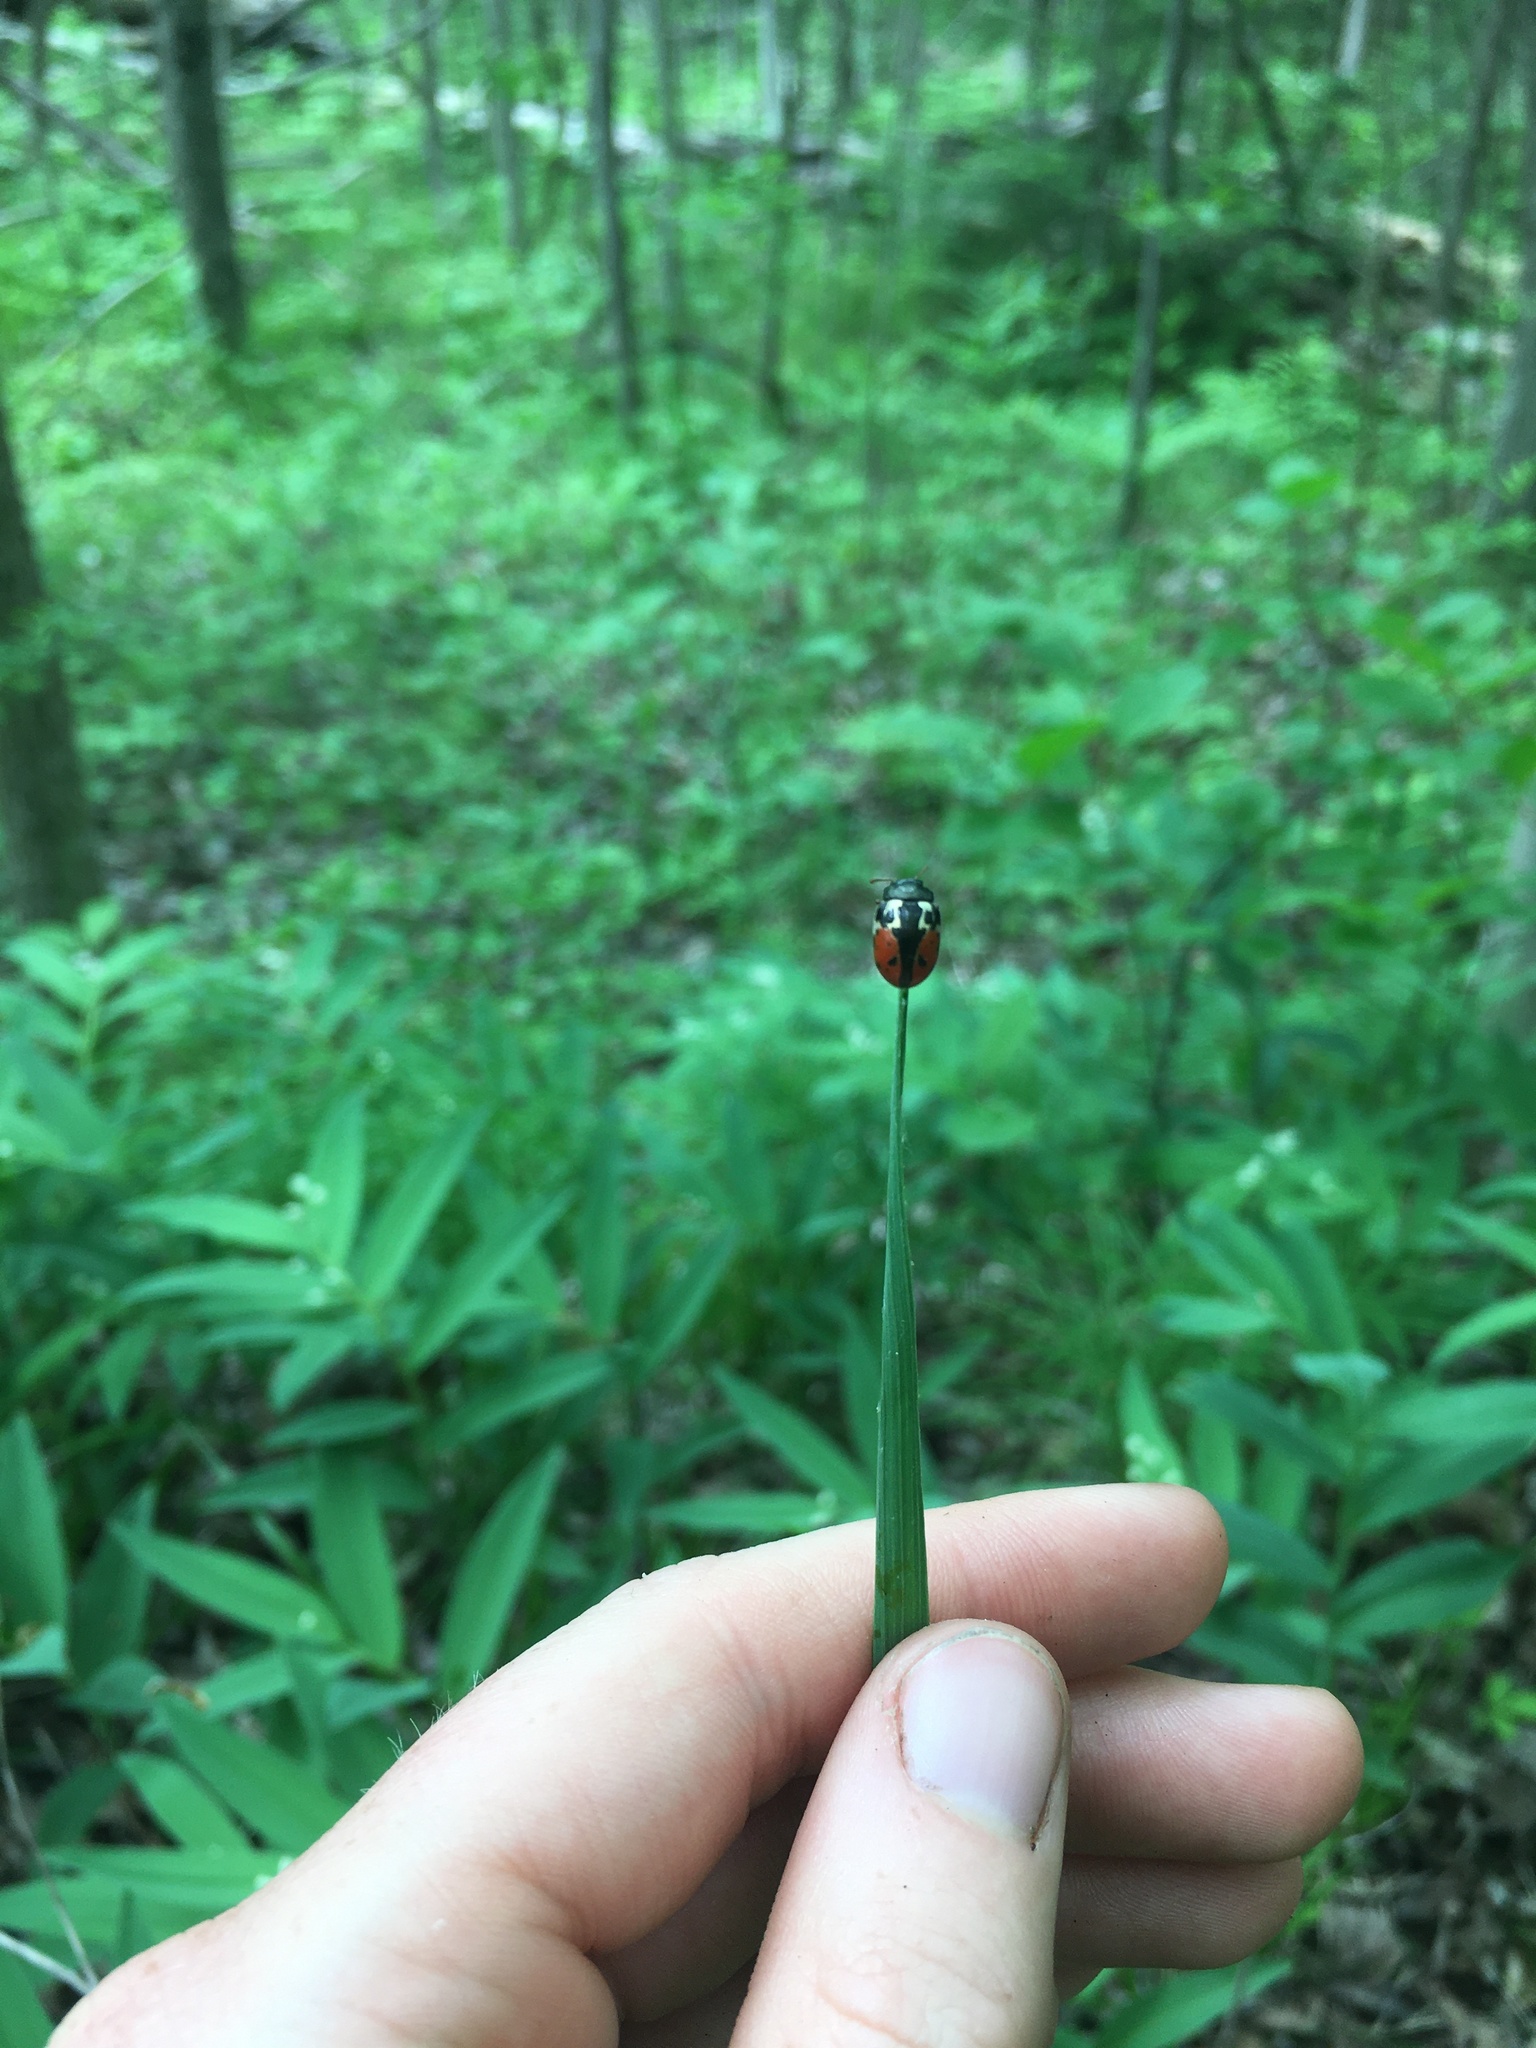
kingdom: Animalia
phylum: Arthropoda
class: Insecta
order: Coleoptera
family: Chrysomelidae
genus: Calligrapha
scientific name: Calligrapha rowena
